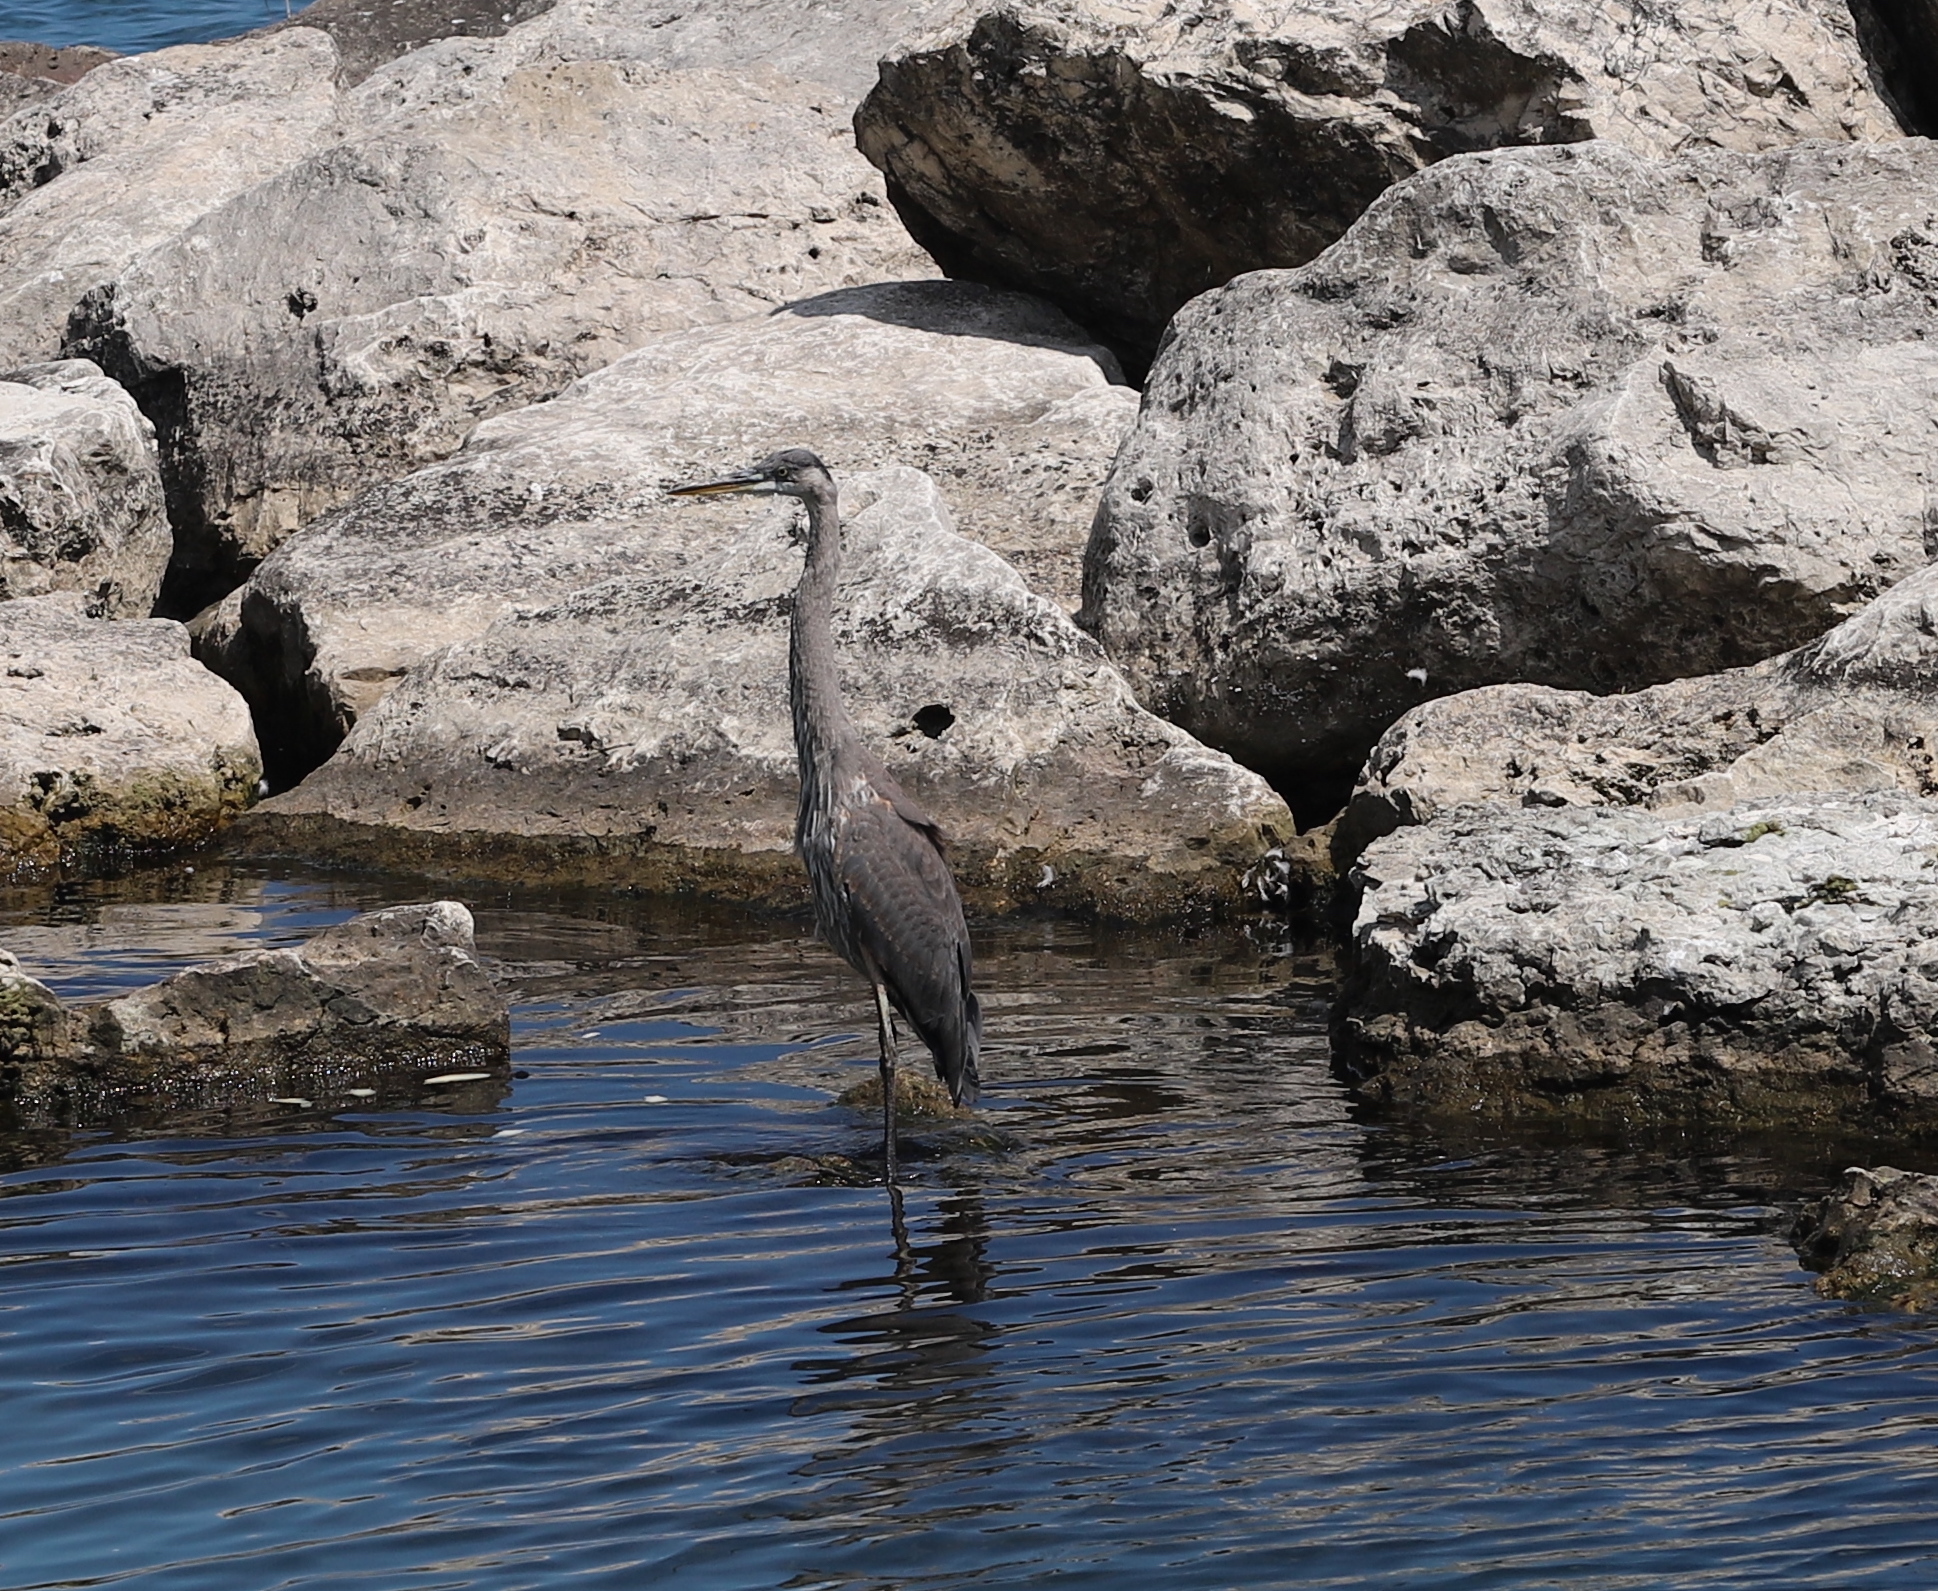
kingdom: Animalia
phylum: Chordata
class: Aves
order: Pelecaniformes
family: Ardeidae
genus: Ardea
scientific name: Ardea herodias
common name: Great blue heron
